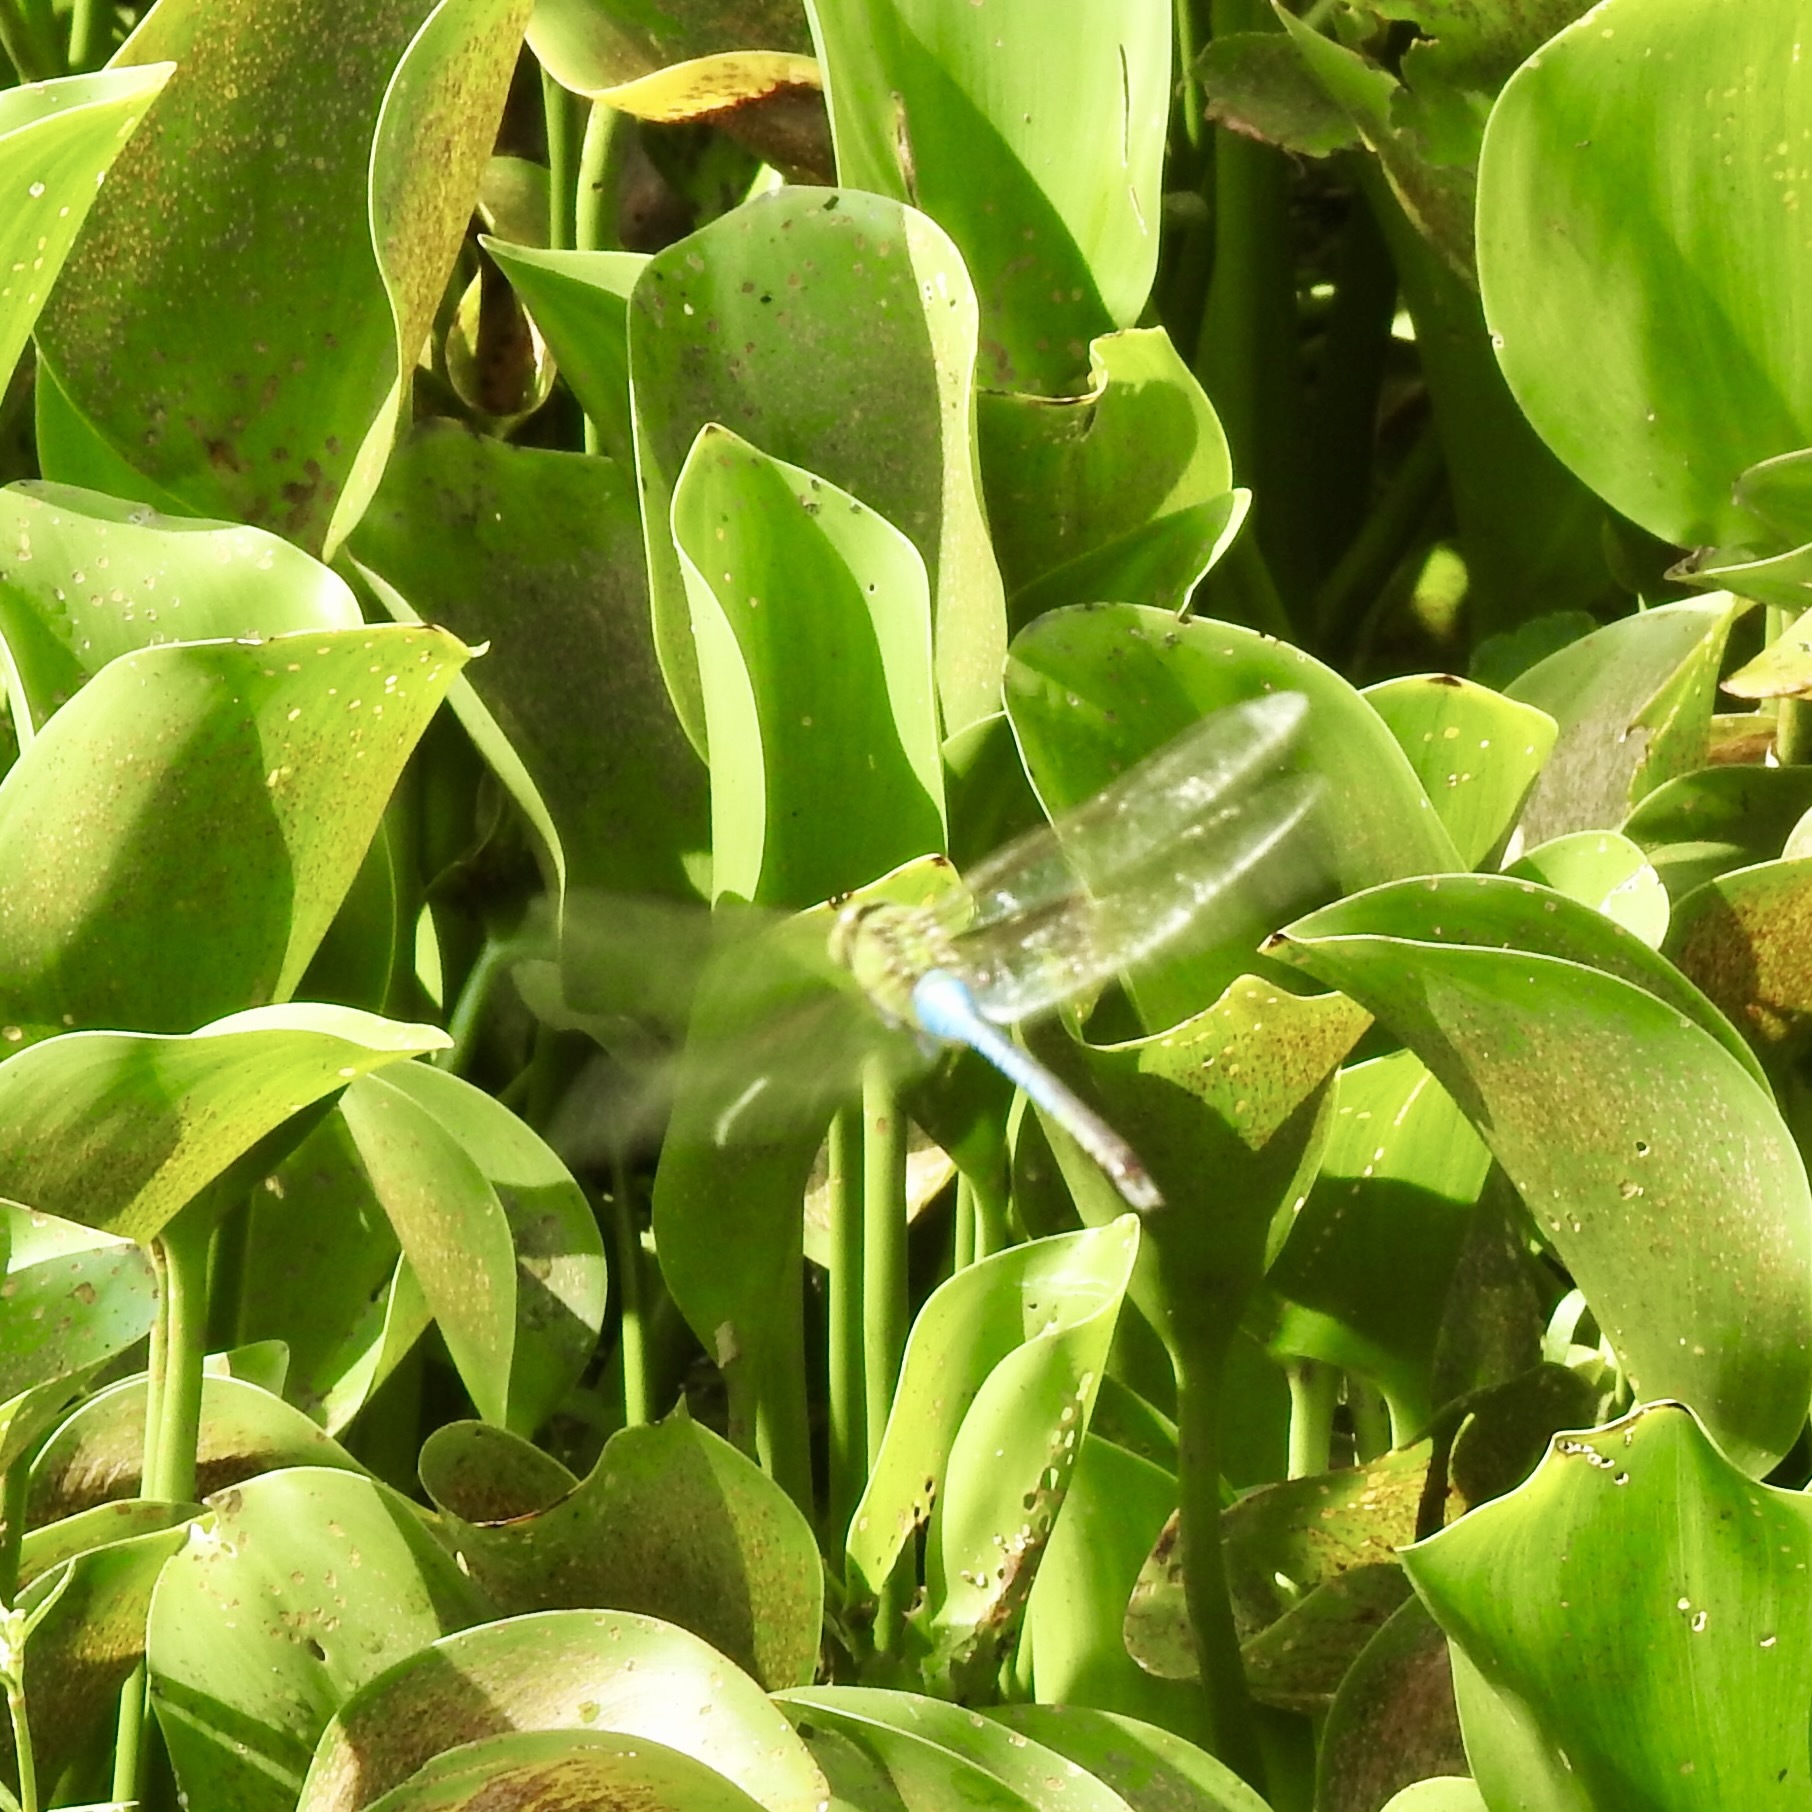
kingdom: Animalia
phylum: Arthropoda
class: Insecta
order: Odonata
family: Aeshnidae
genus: Anax
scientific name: Anax junius
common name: Common green darner
